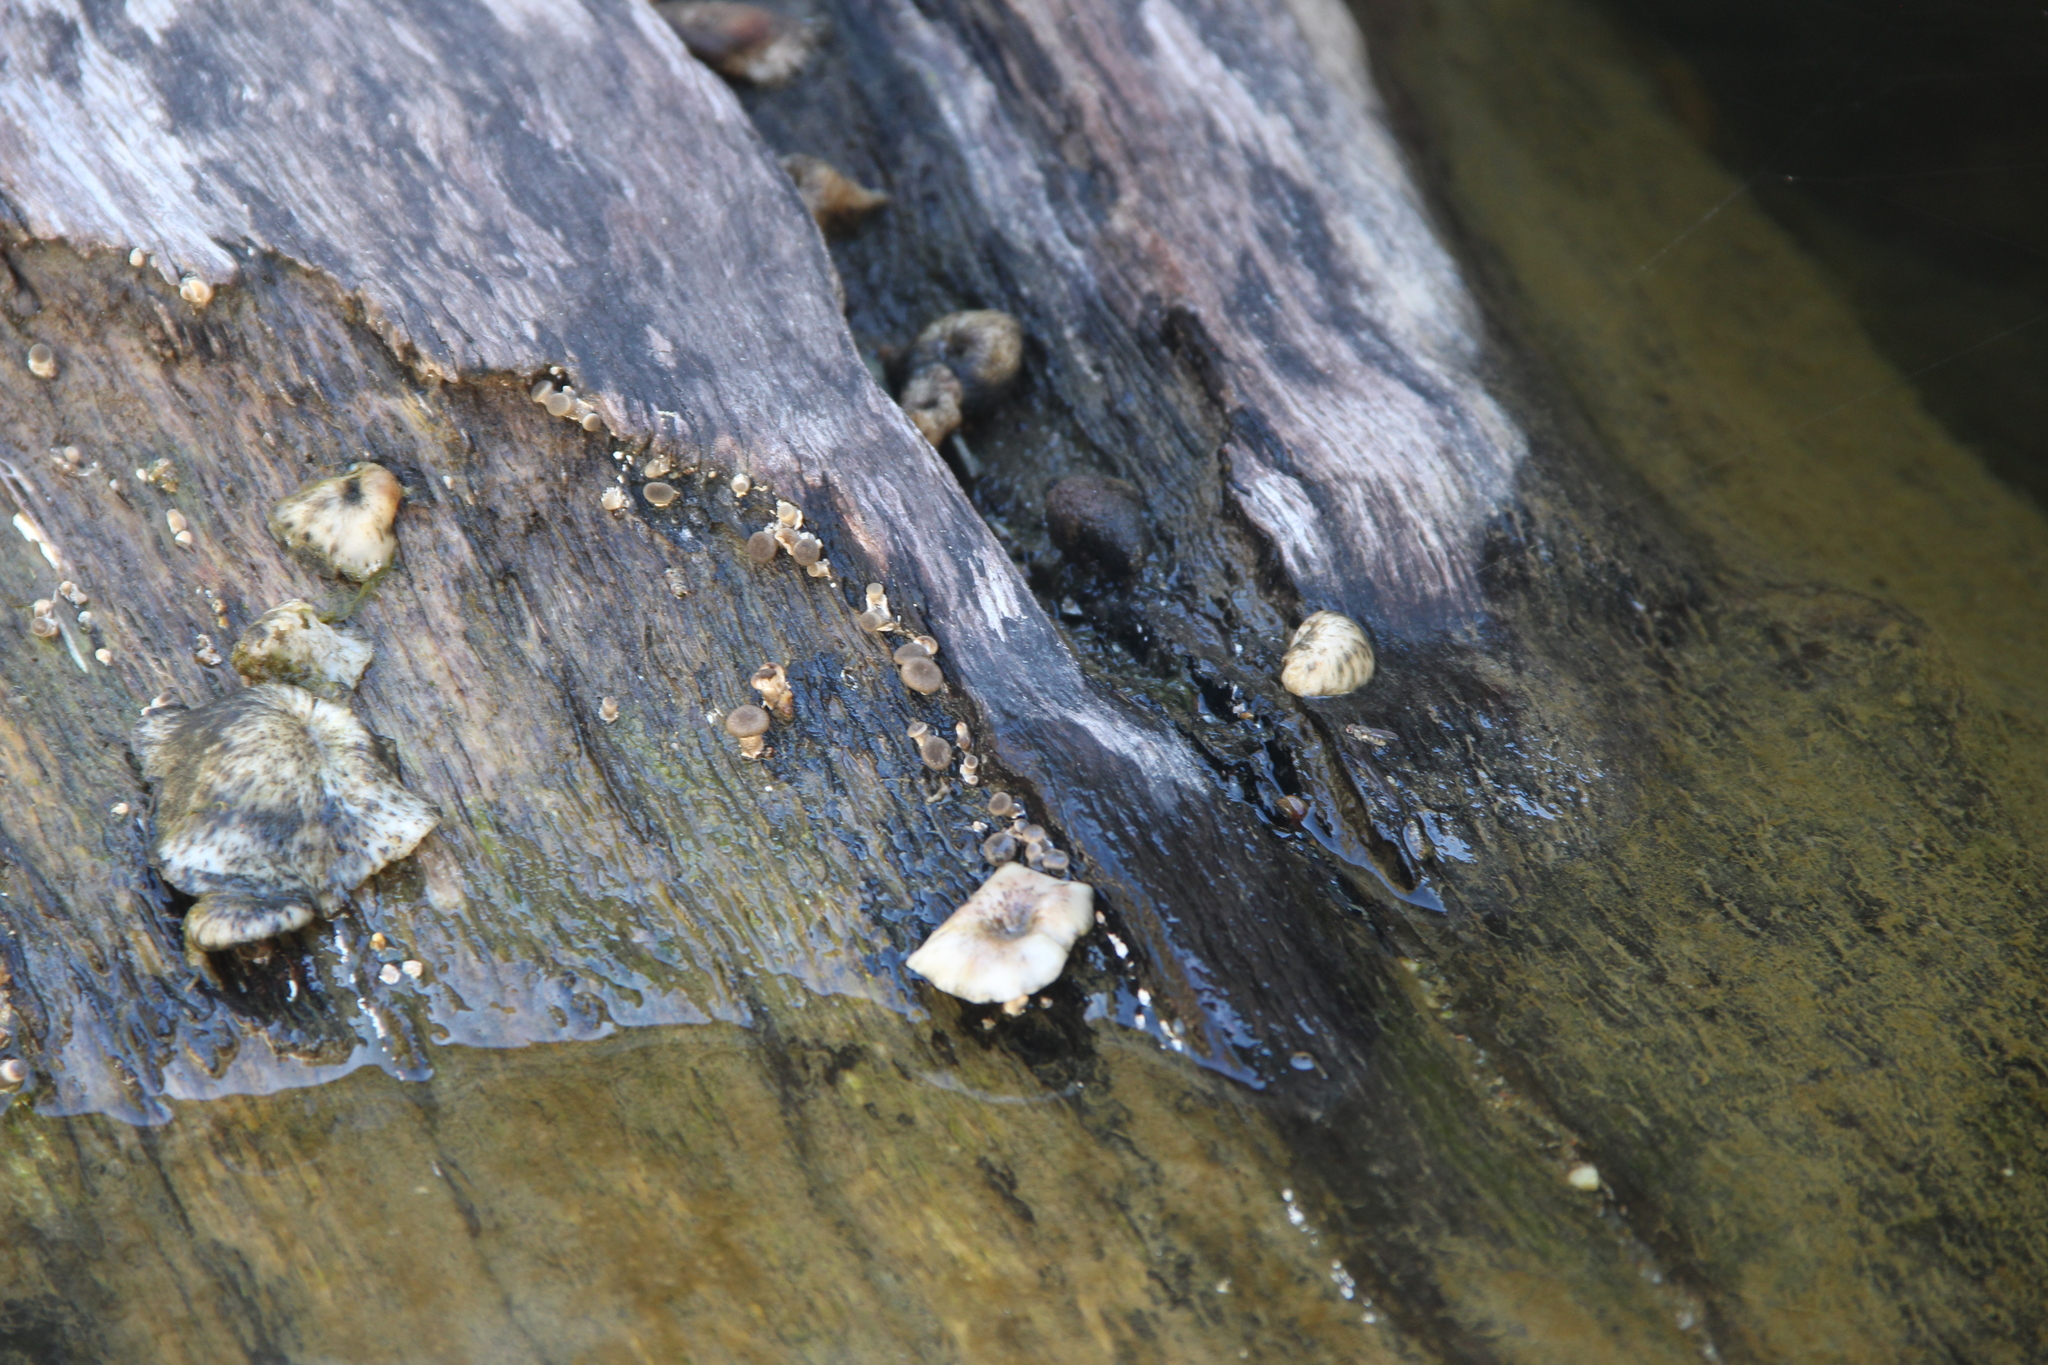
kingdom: Fungi
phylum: Basidiomycota
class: Agaricomycetes
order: Polyporales
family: Polyporaceae
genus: Lentinus
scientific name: Lentinus tigrinus
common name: Tiger sawgill
